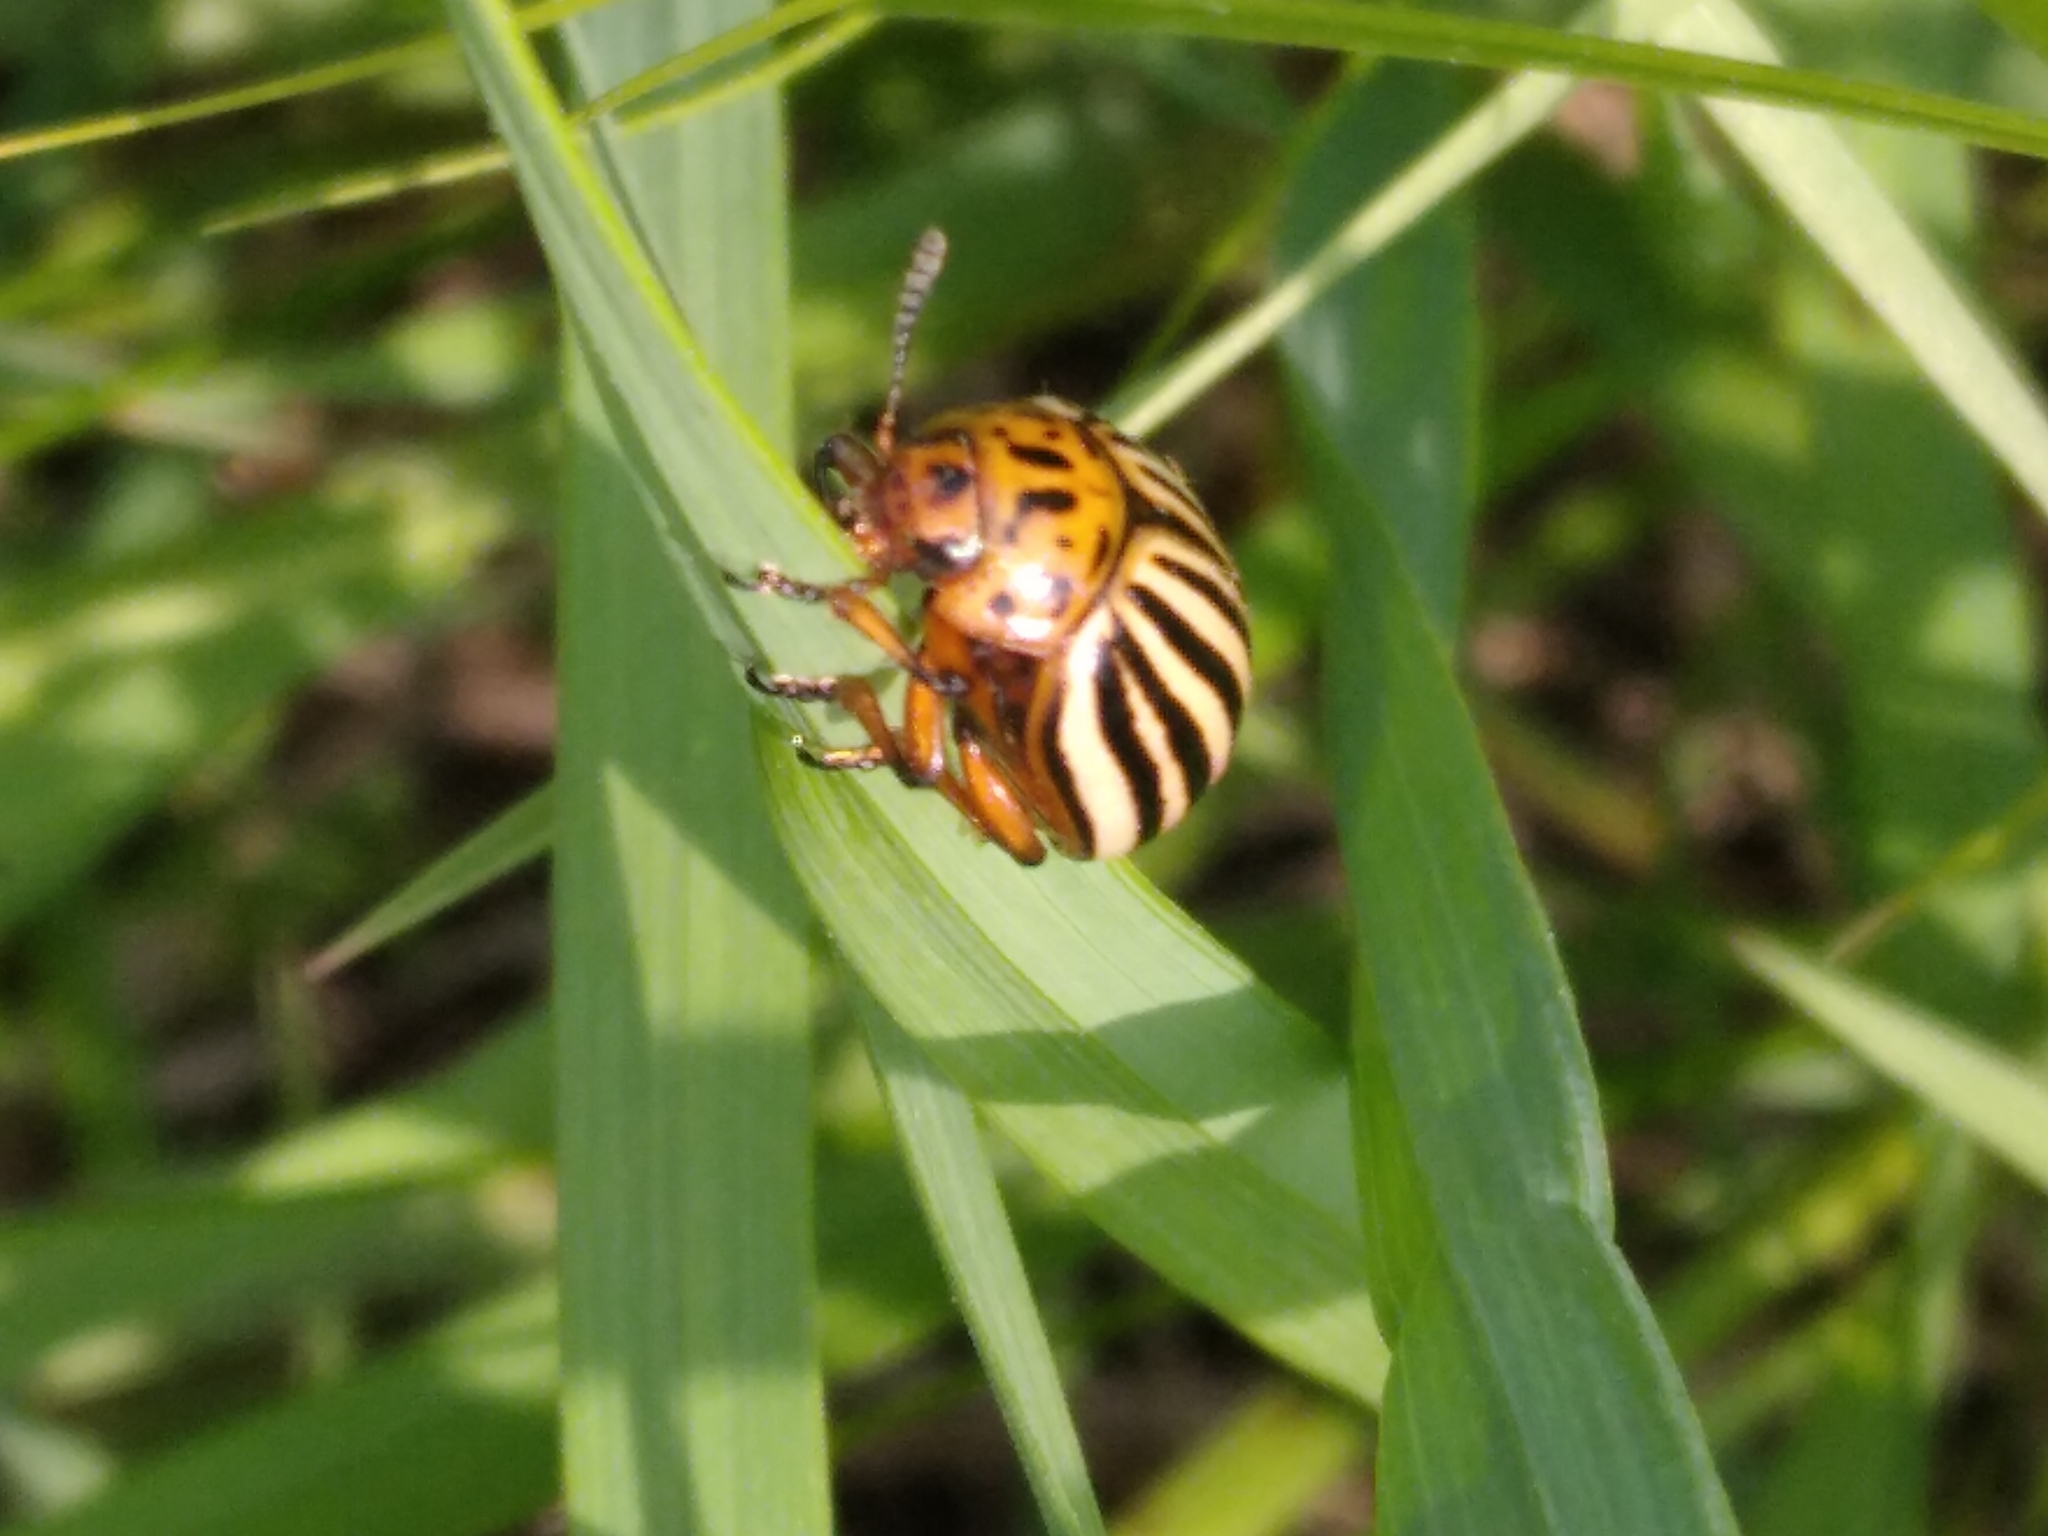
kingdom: Animalia
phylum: Arthropoda
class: Insecta
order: Coleoptera
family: Chrysomelidae
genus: Leptinotarsa
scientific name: Leptinotarsa decemlineata
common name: Colorado potato beetle
